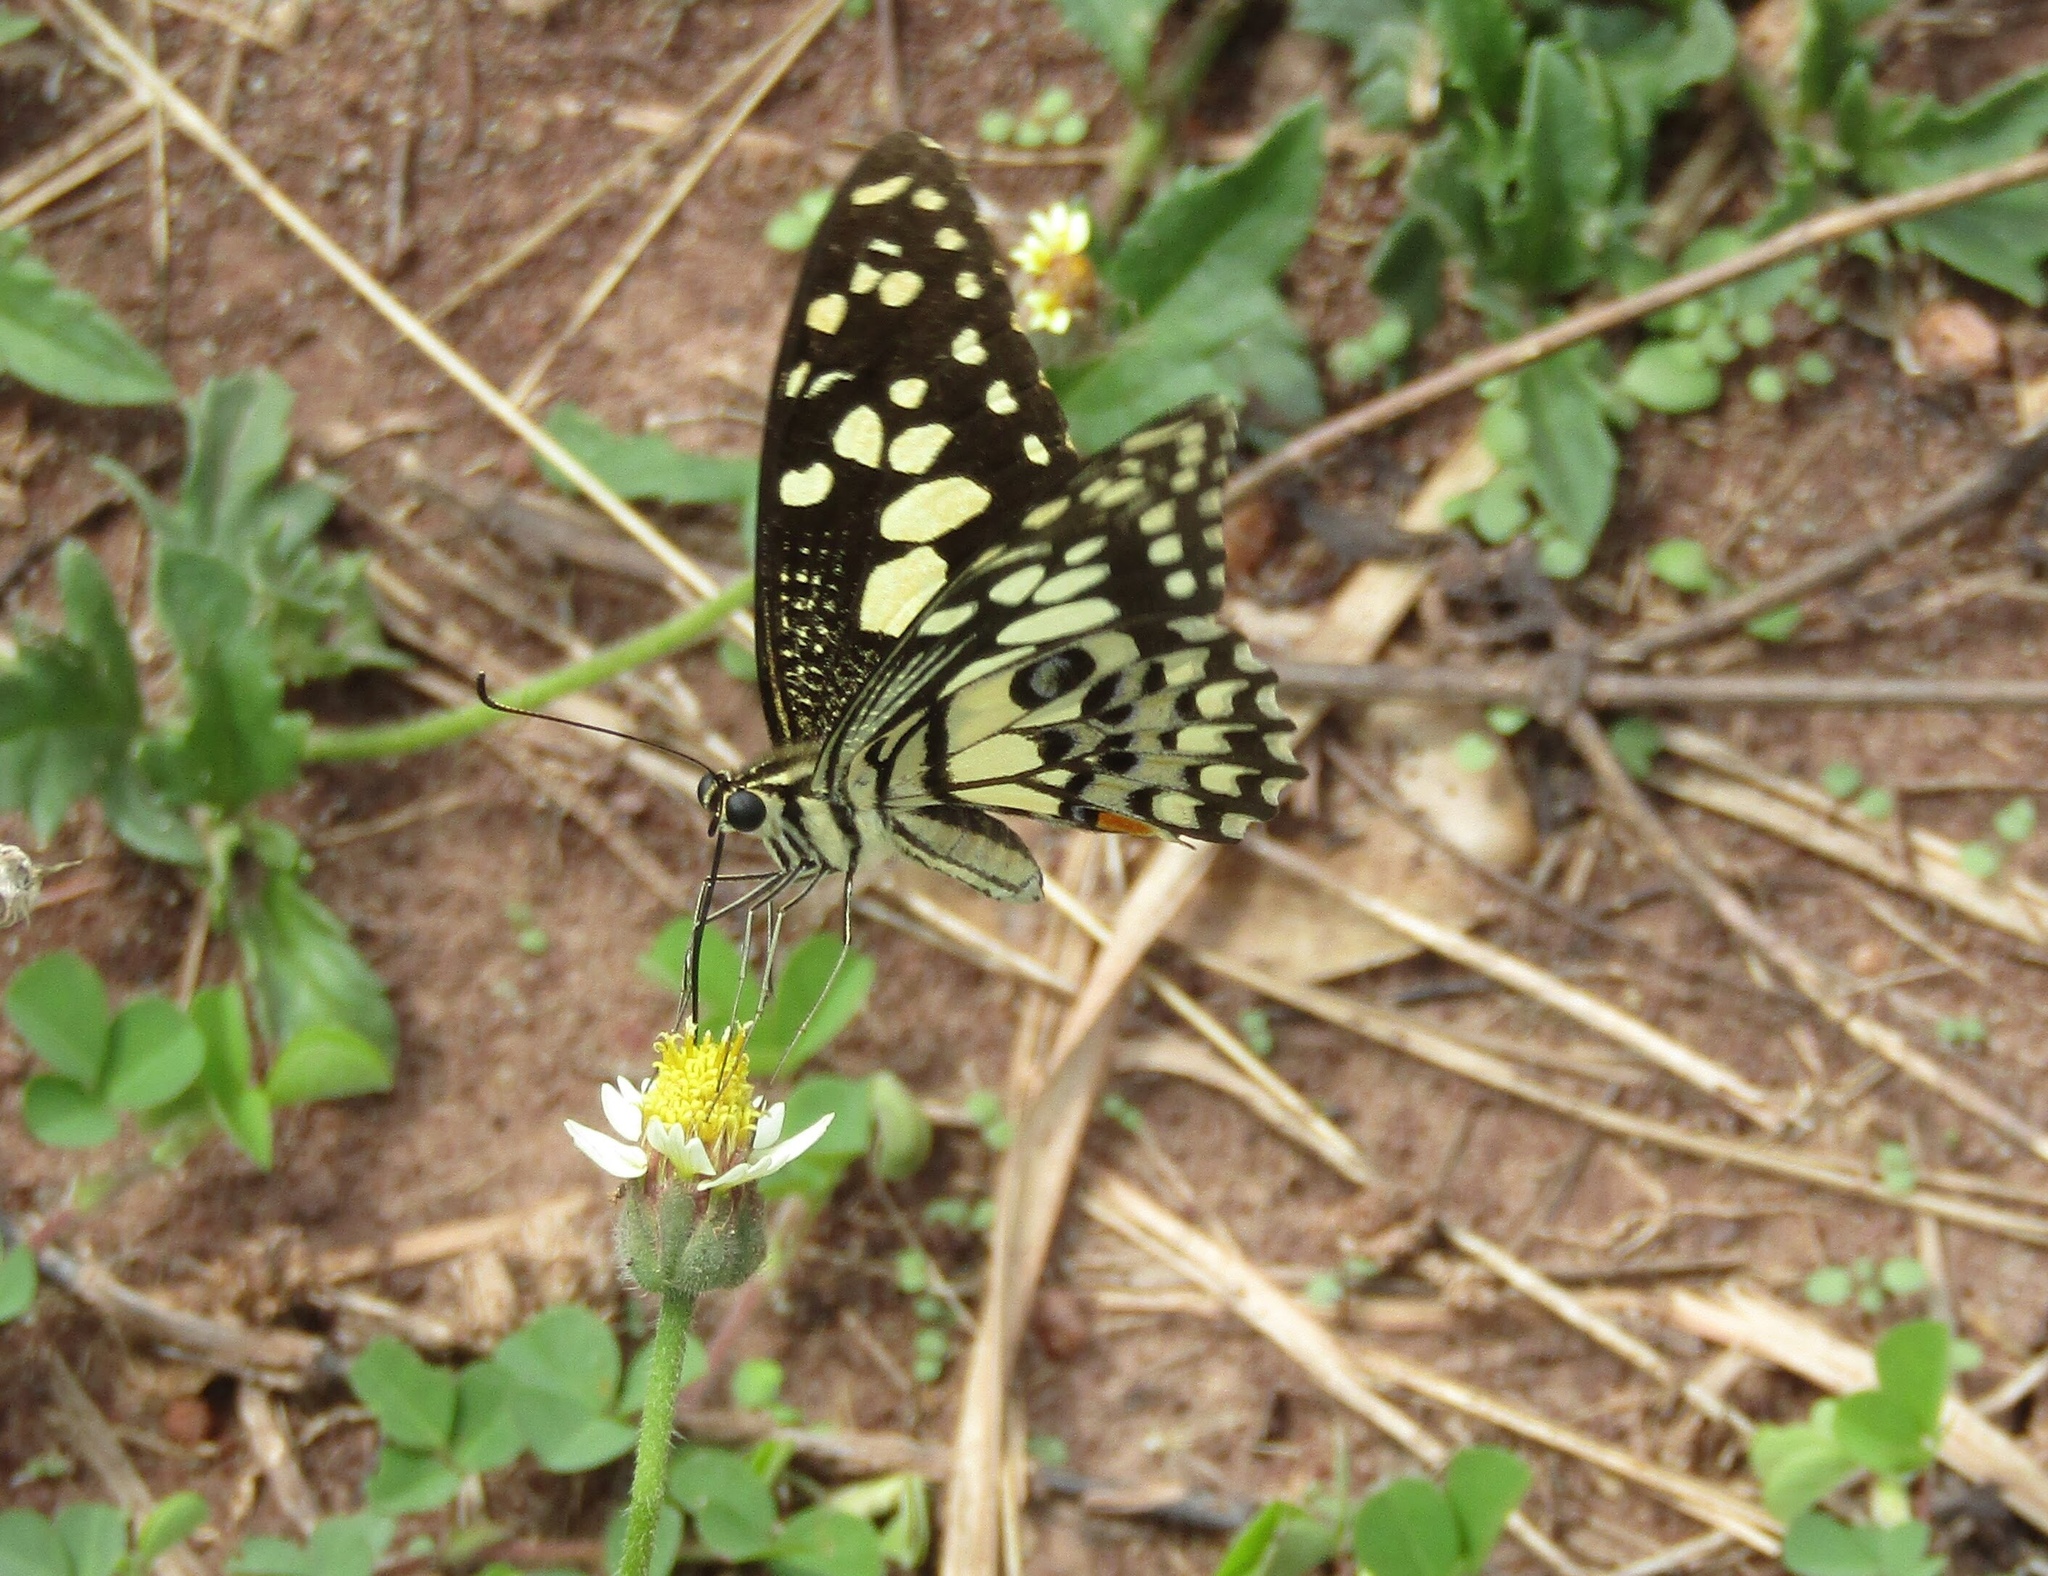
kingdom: Animalia
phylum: Arthropoda
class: Insecta
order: Lepidoptera
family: Papilionidae
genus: Papilio
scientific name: Papilio demoleus
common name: Lime butterfly
